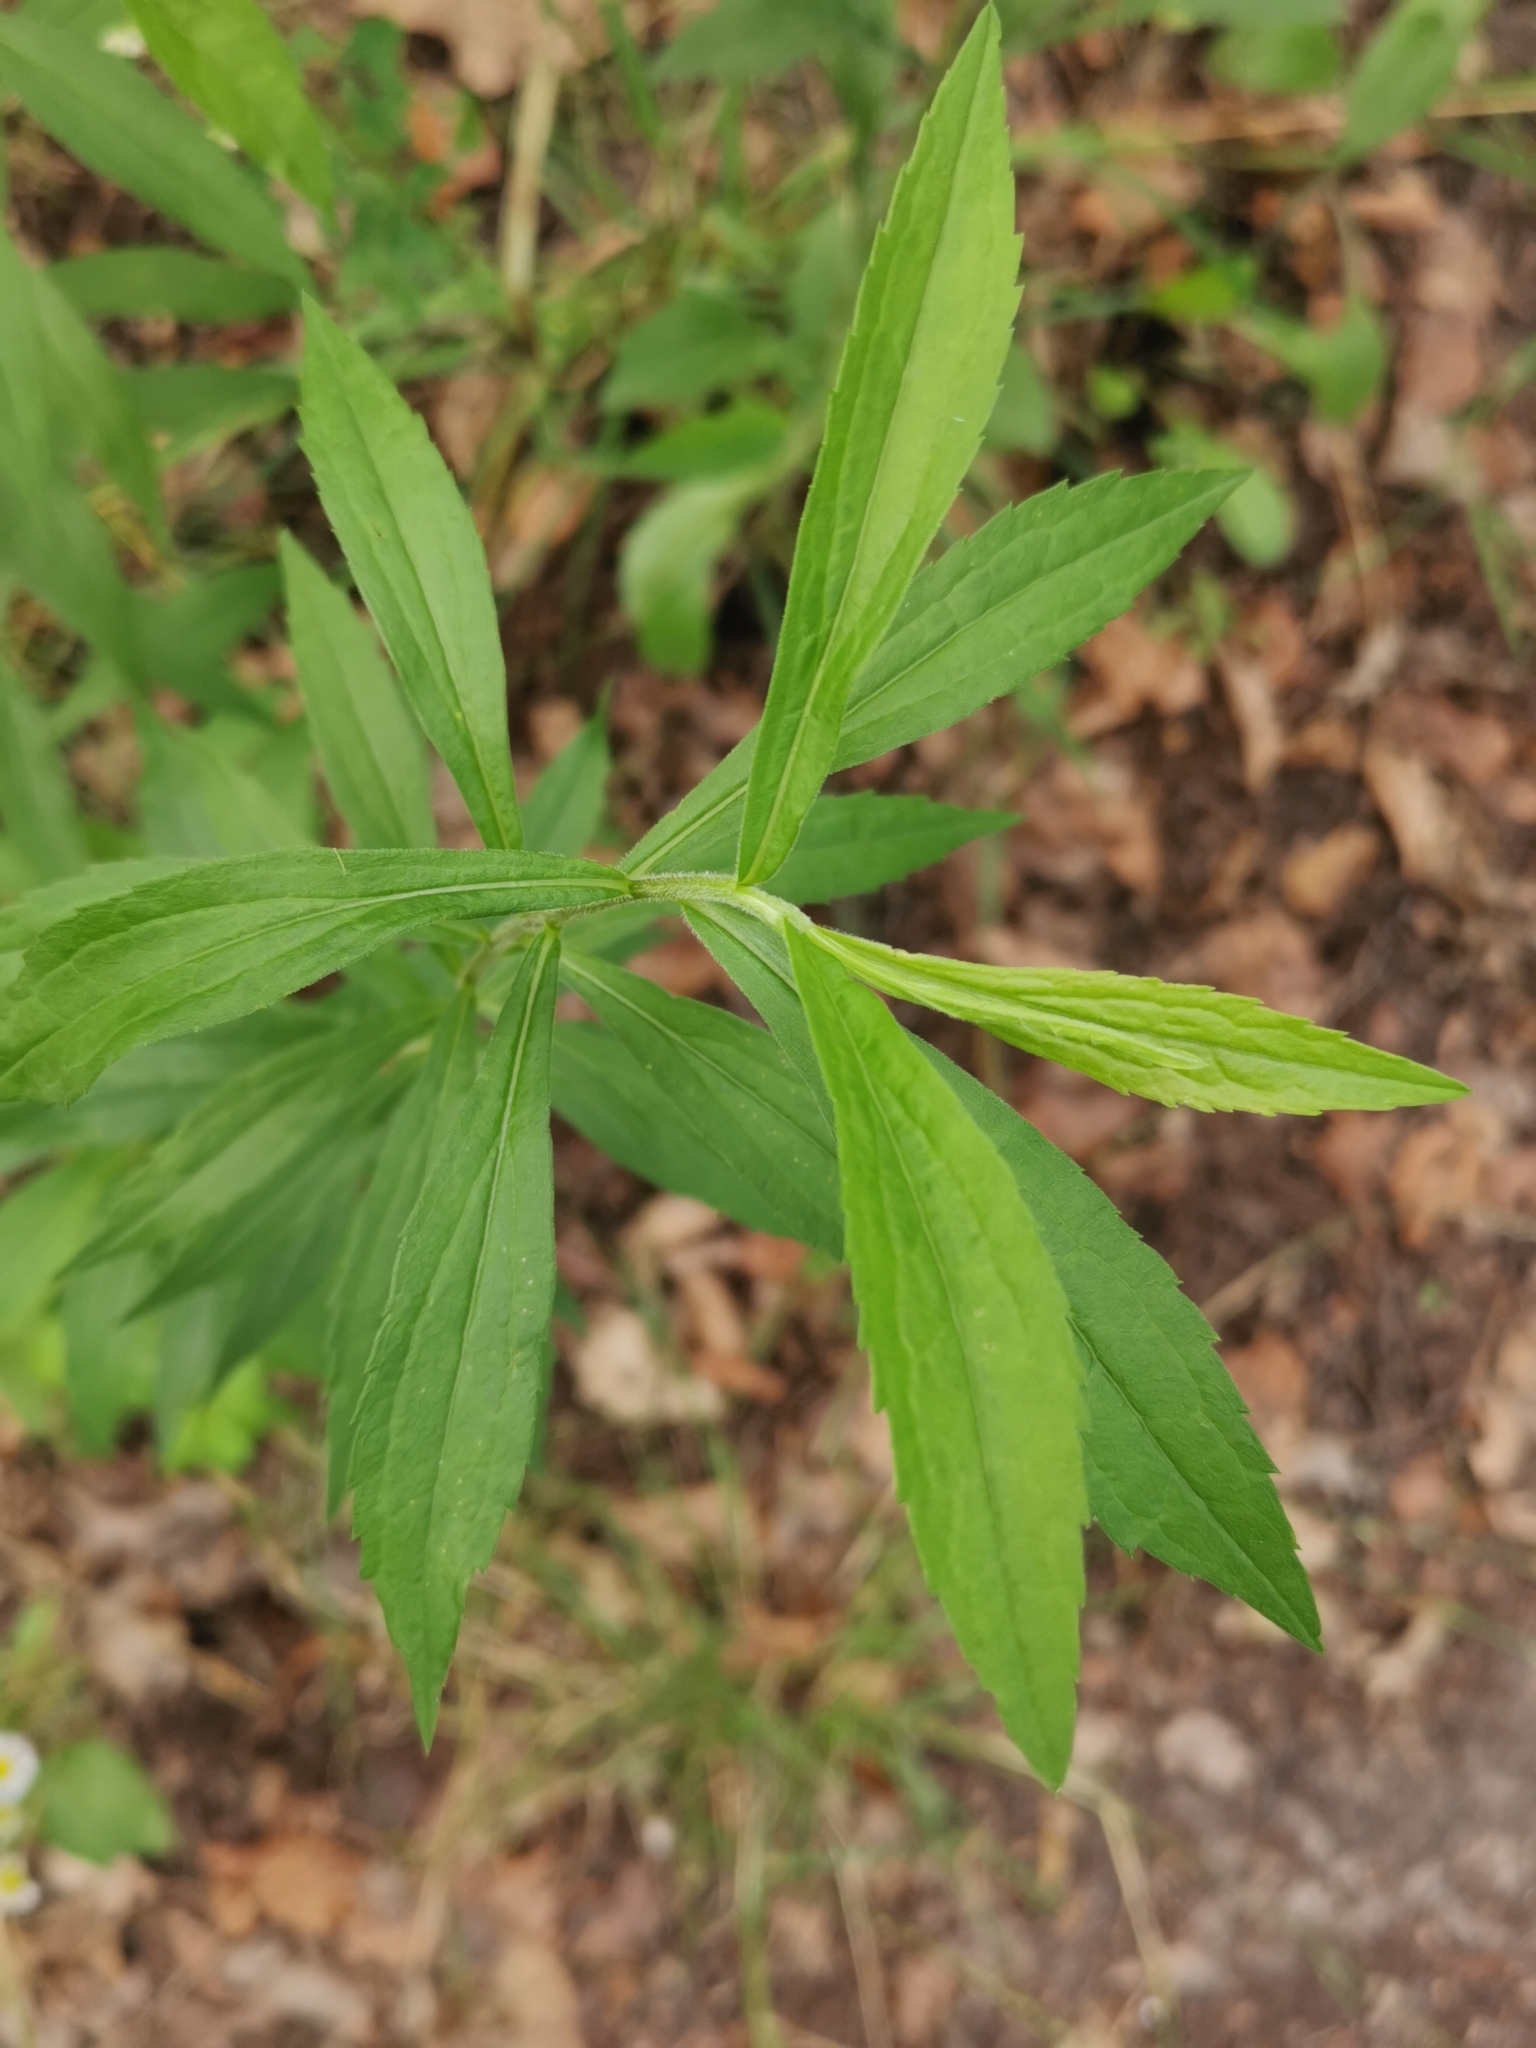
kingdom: Plantae
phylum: Tracheophyta
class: Magnoliopsida
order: Asterales
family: Asteraceae
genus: Solidago
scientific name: Solidago canadensis
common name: Canada goldenrod
